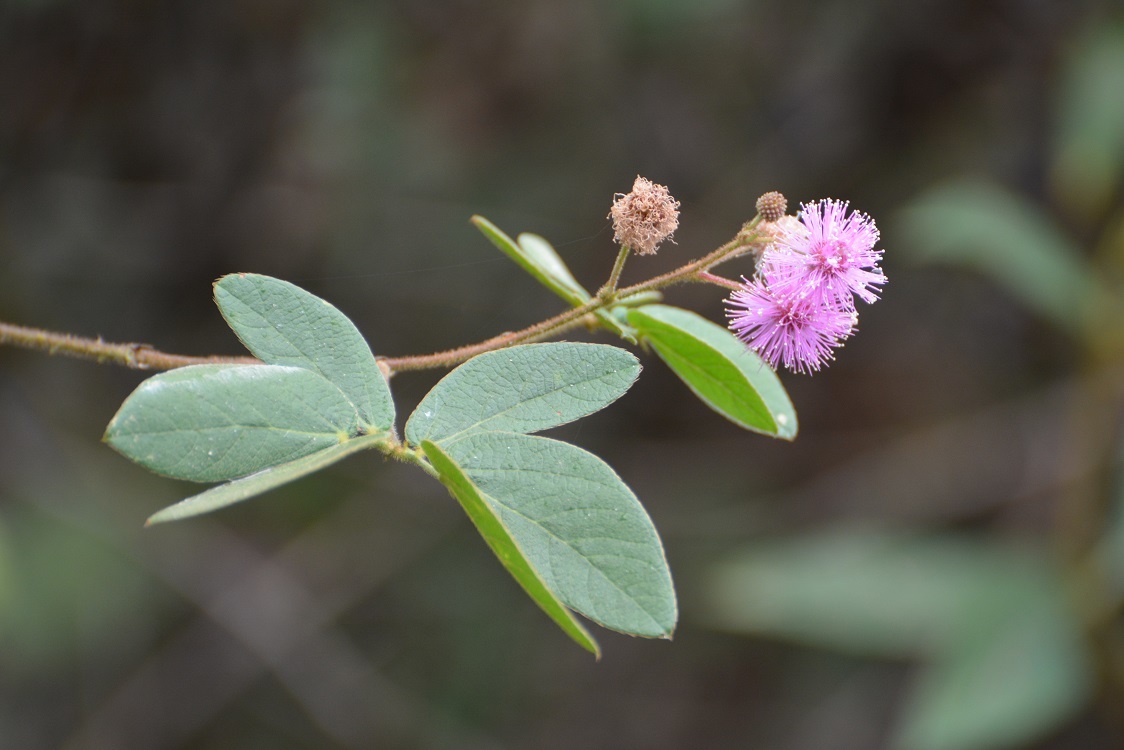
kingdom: Plantae
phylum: Tracheophyta
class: Magnoliopsida
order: Fabales
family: Fabaceae
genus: Mimosa
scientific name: Mimosa albida
